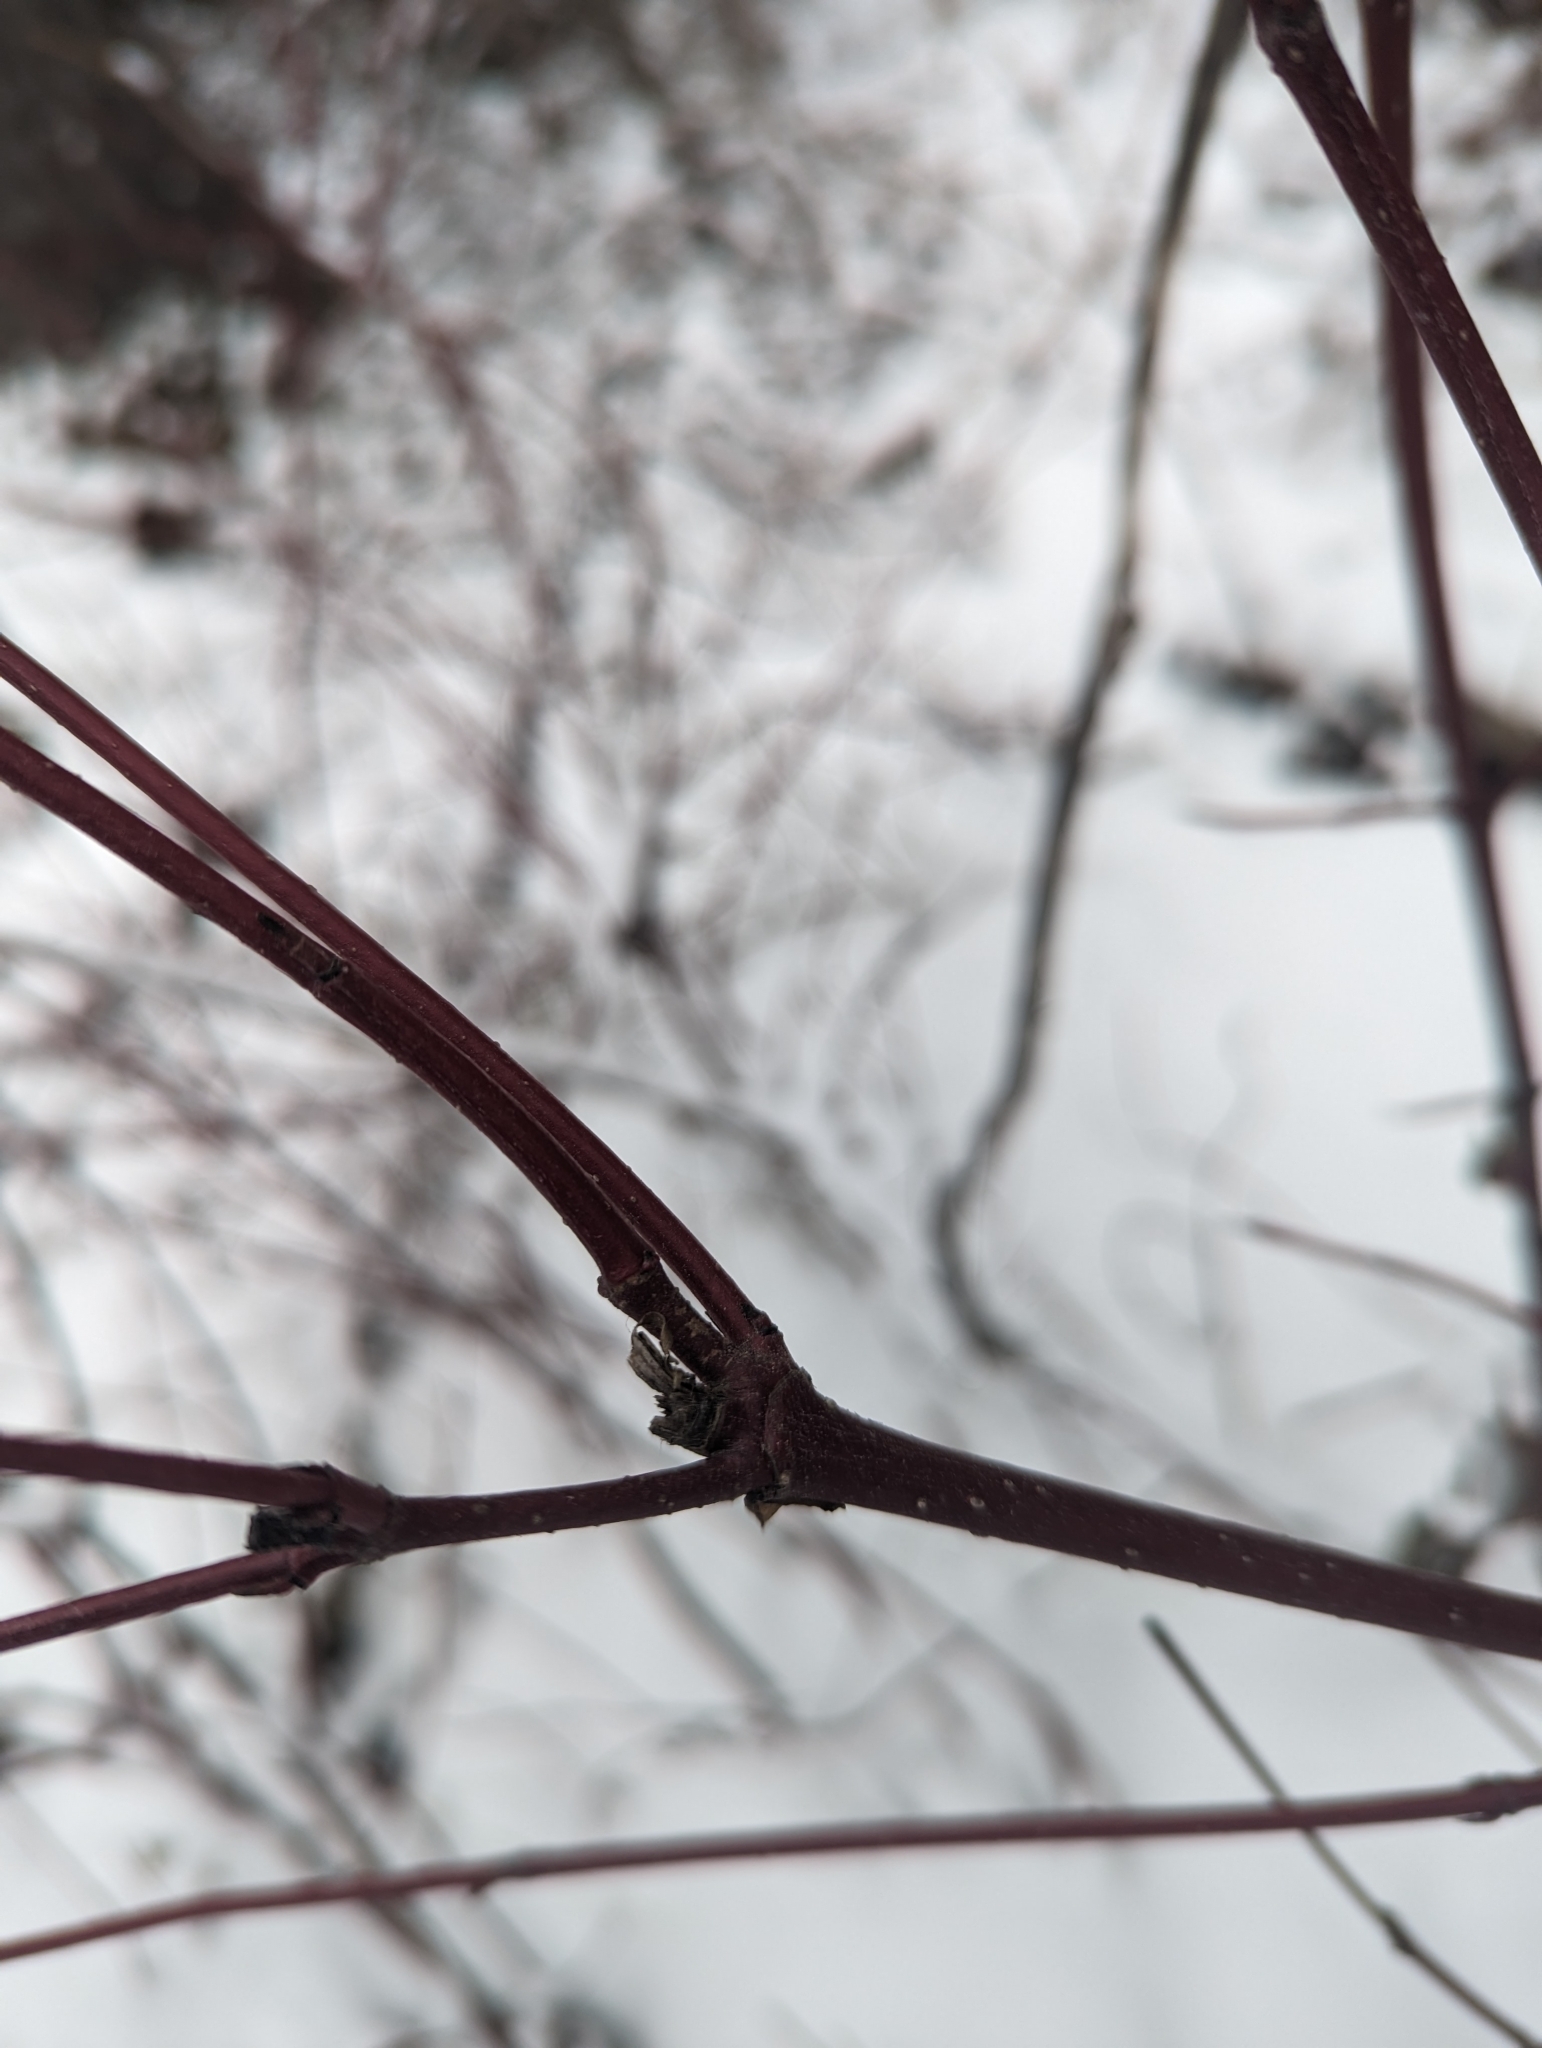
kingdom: Plantae
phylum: Tracheophyta
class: Magnoliopsida
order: Cornales
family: Cornaceae
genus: Cornus
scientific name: Cornus sericea
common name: Red-osier dogwood
